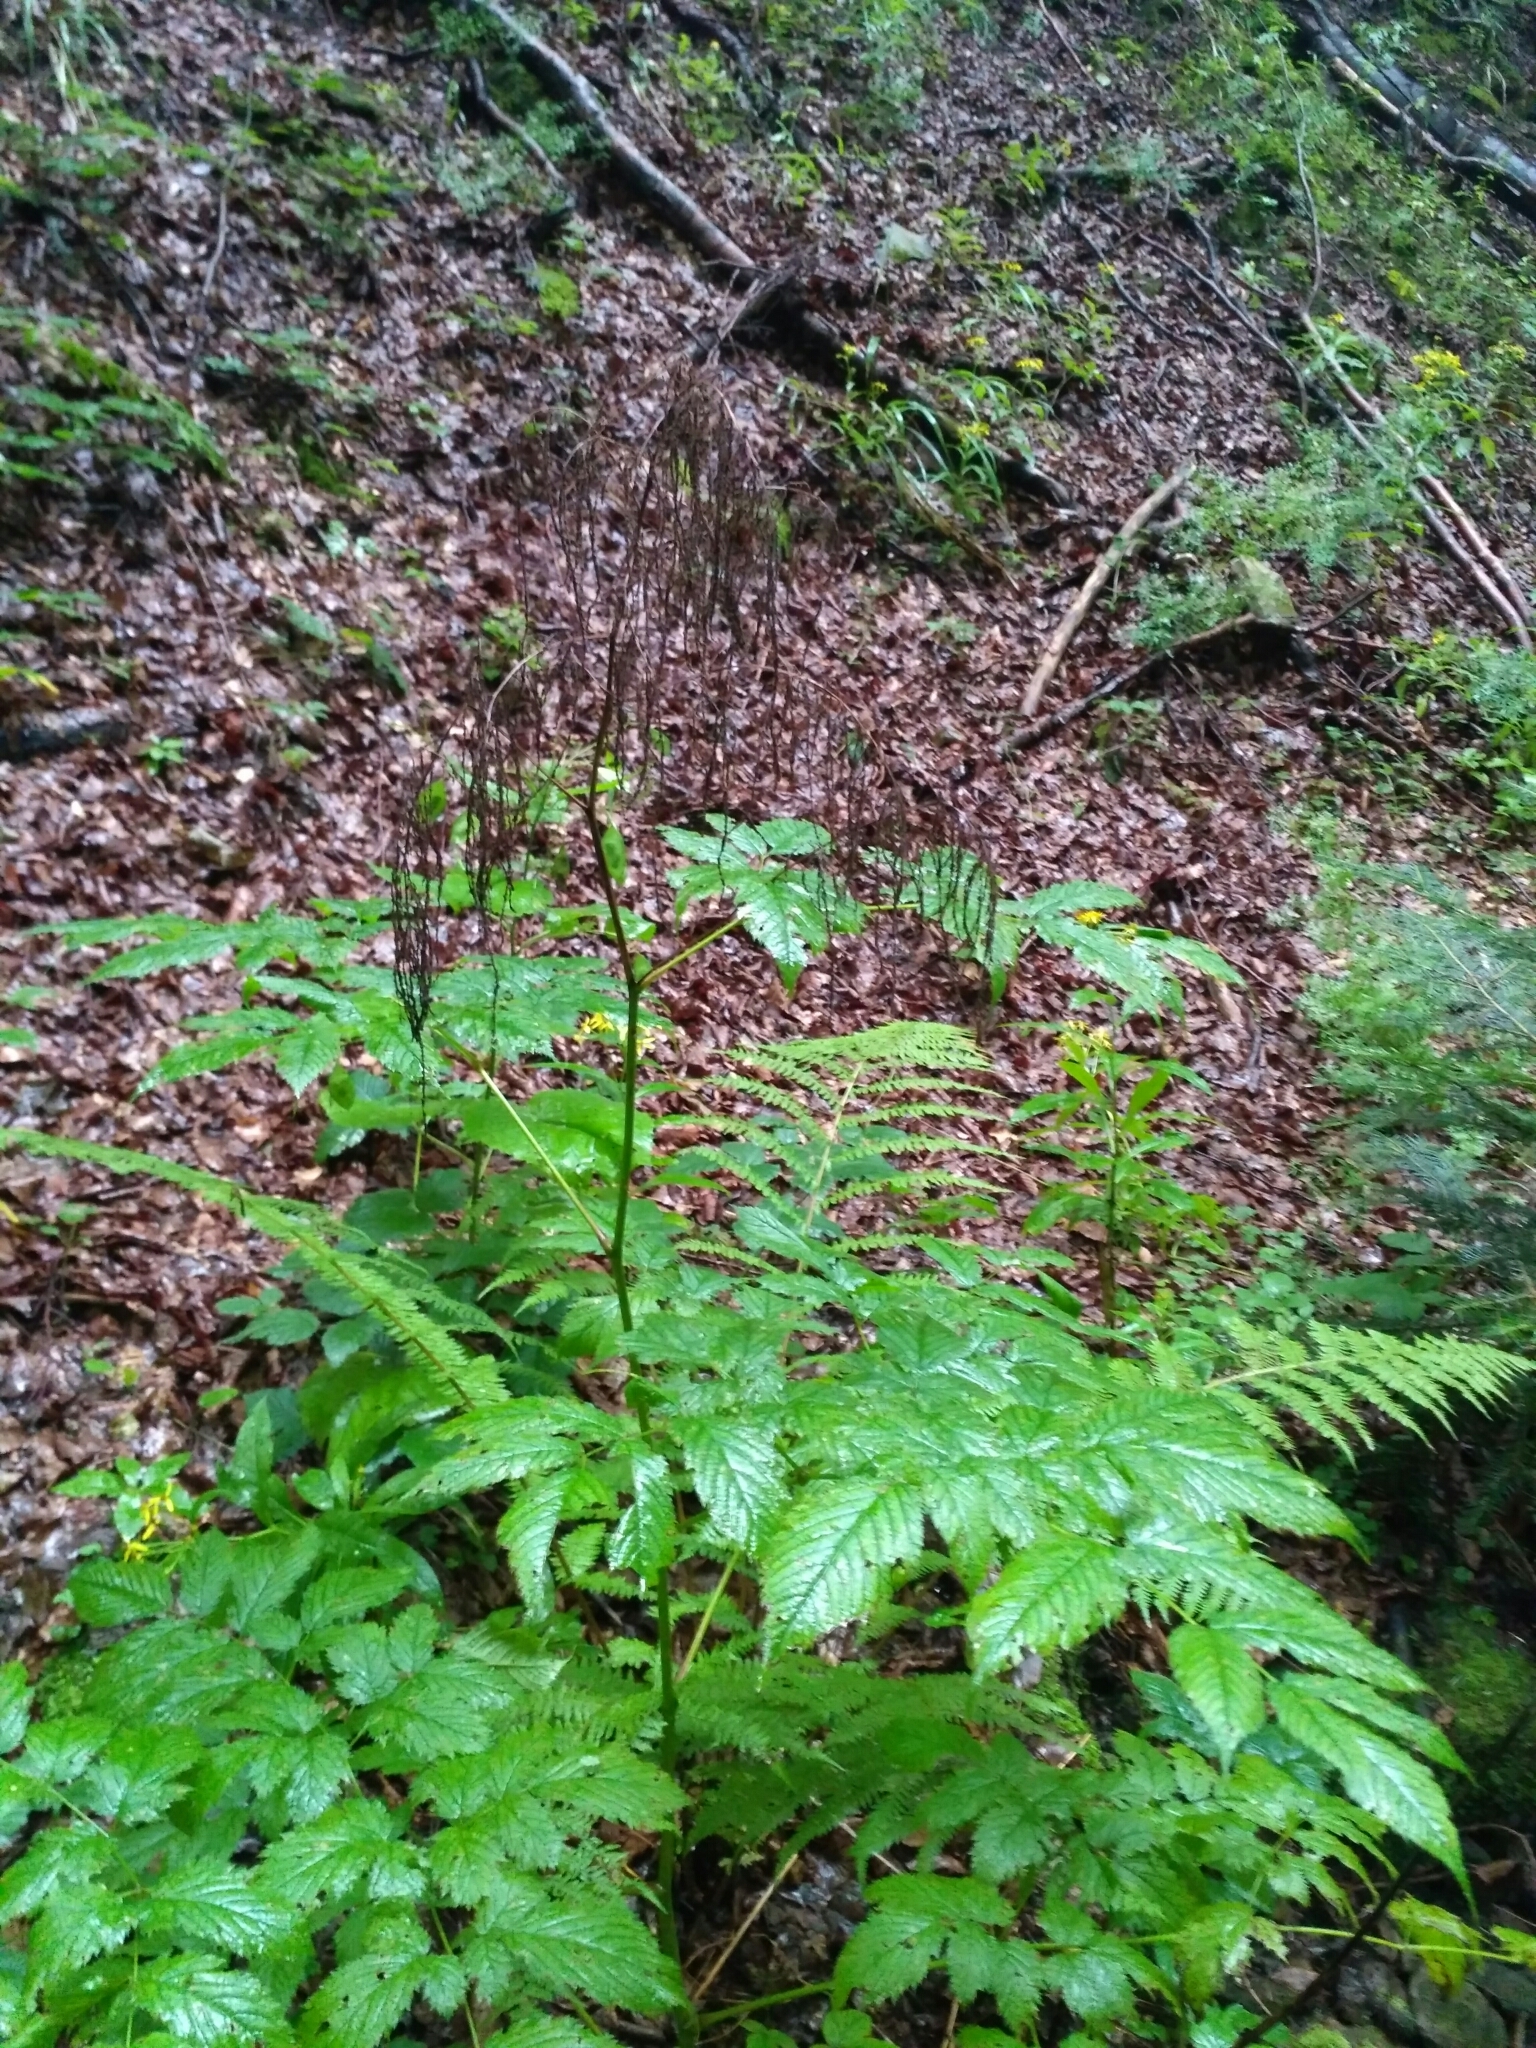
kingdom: Plantae
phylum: Tracheophyta
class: Magnoliopsida
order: Rosales
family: Rosaceae
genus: Aruncus
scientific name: Aruncus dioicus
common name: Buck's-beard
